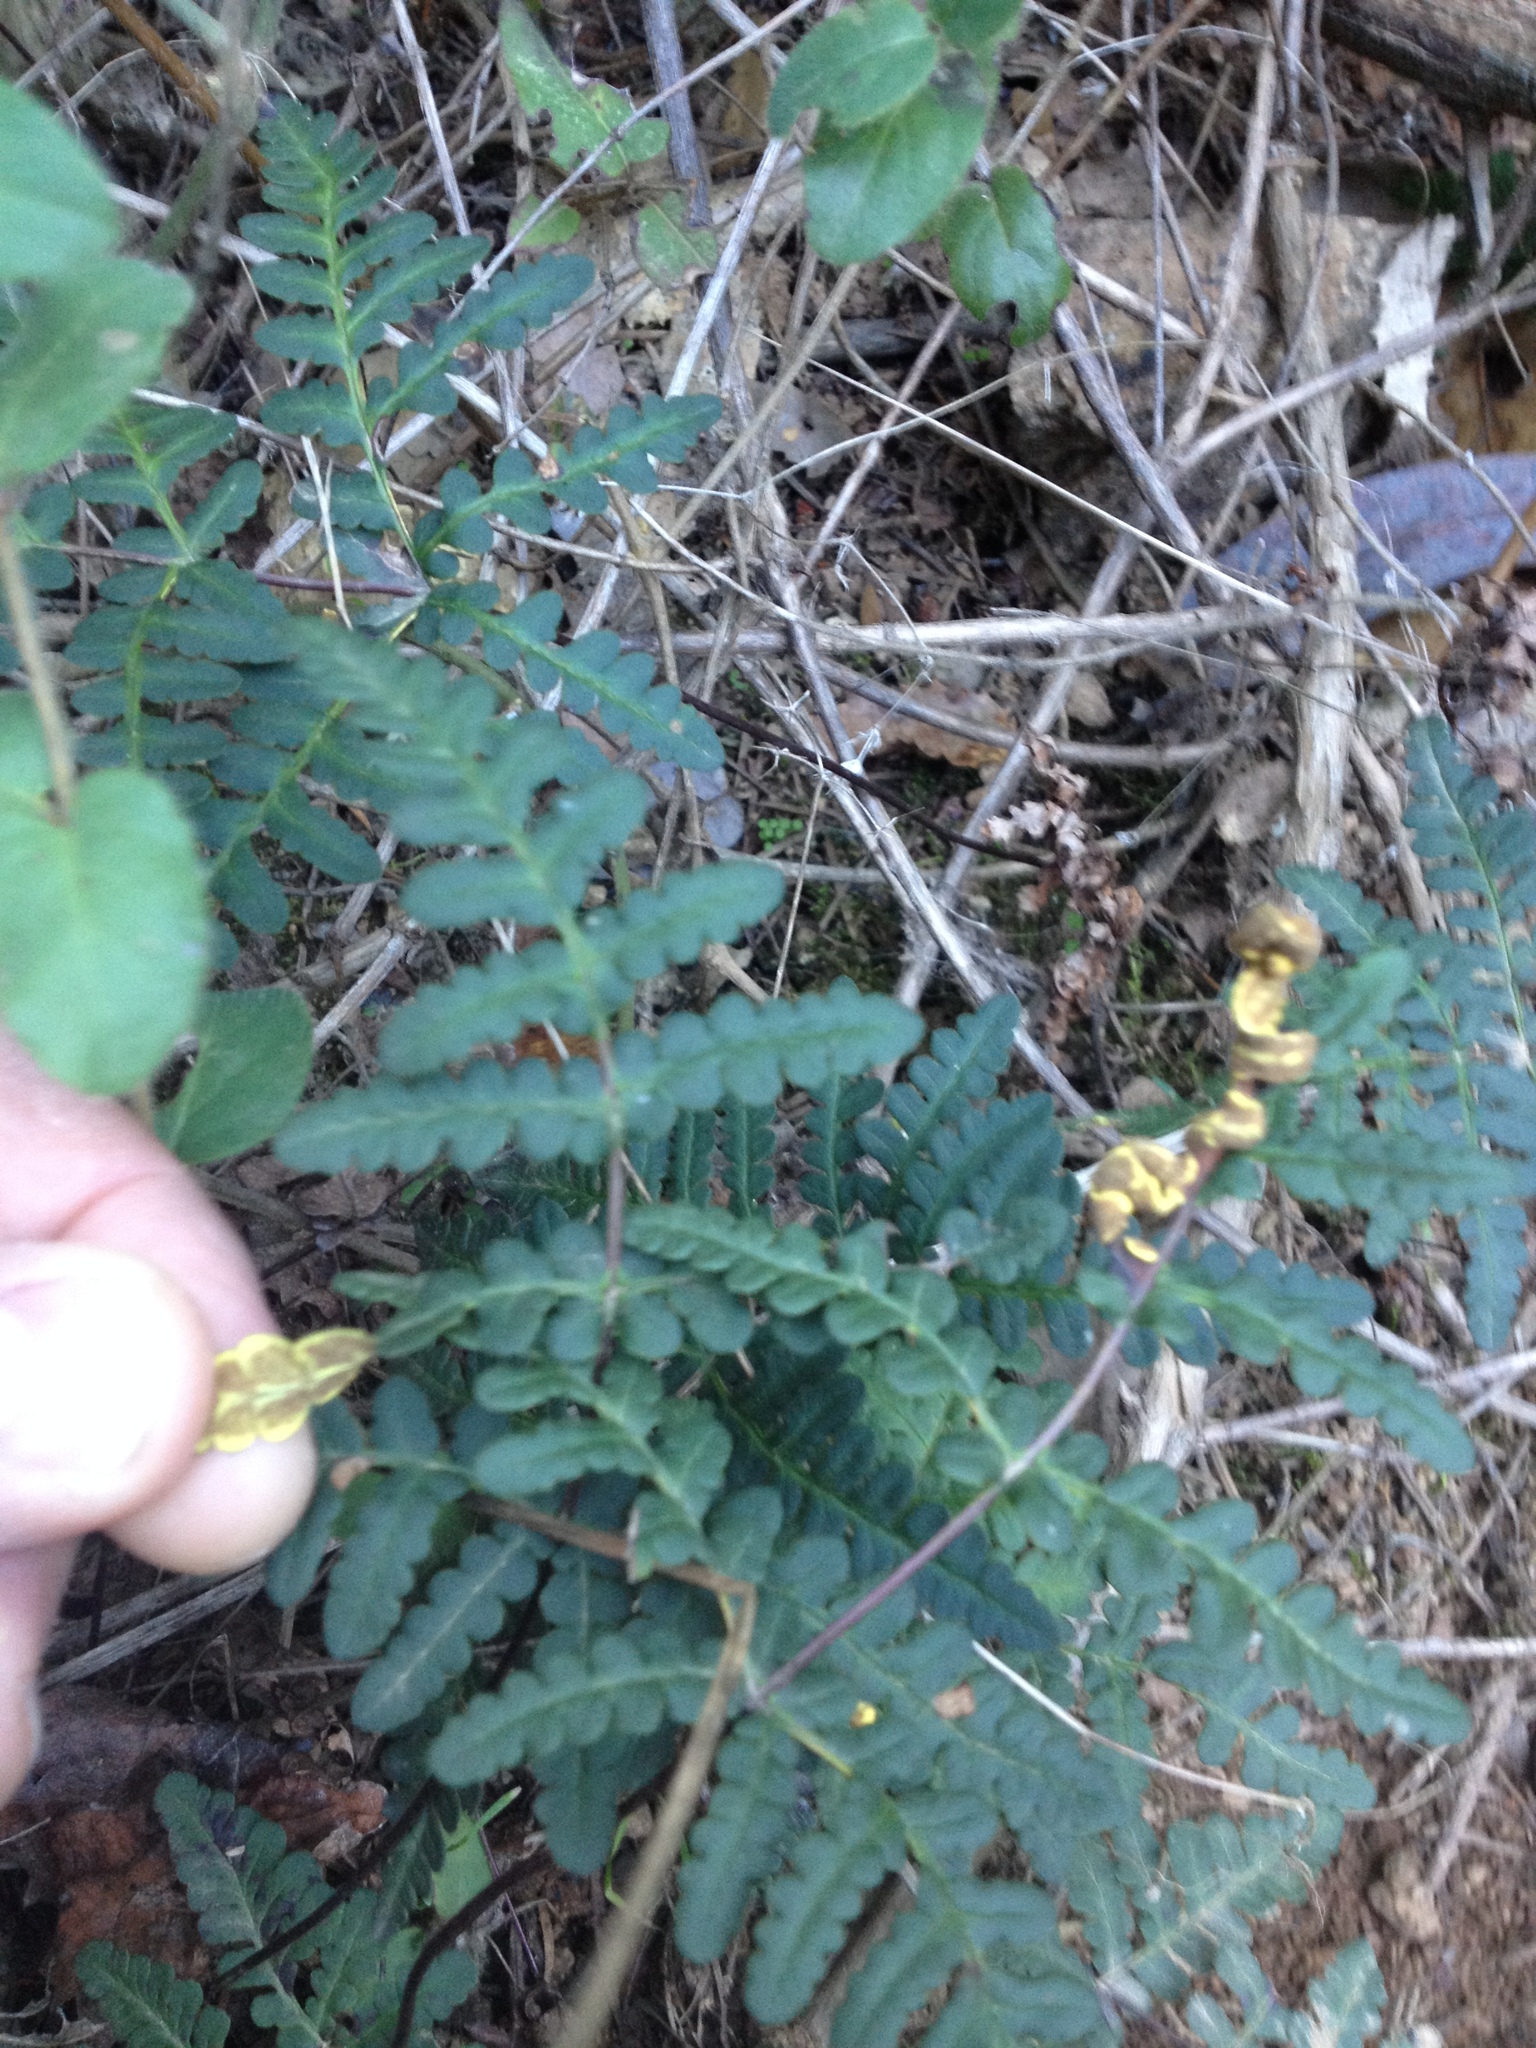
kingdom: Plantae
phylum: Tracheophyta
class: Polypodiopsida
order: Polypodiales
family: Pteridaceae
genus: Pentagramma
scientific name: Pentagramma triangularis
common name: Gold fern
